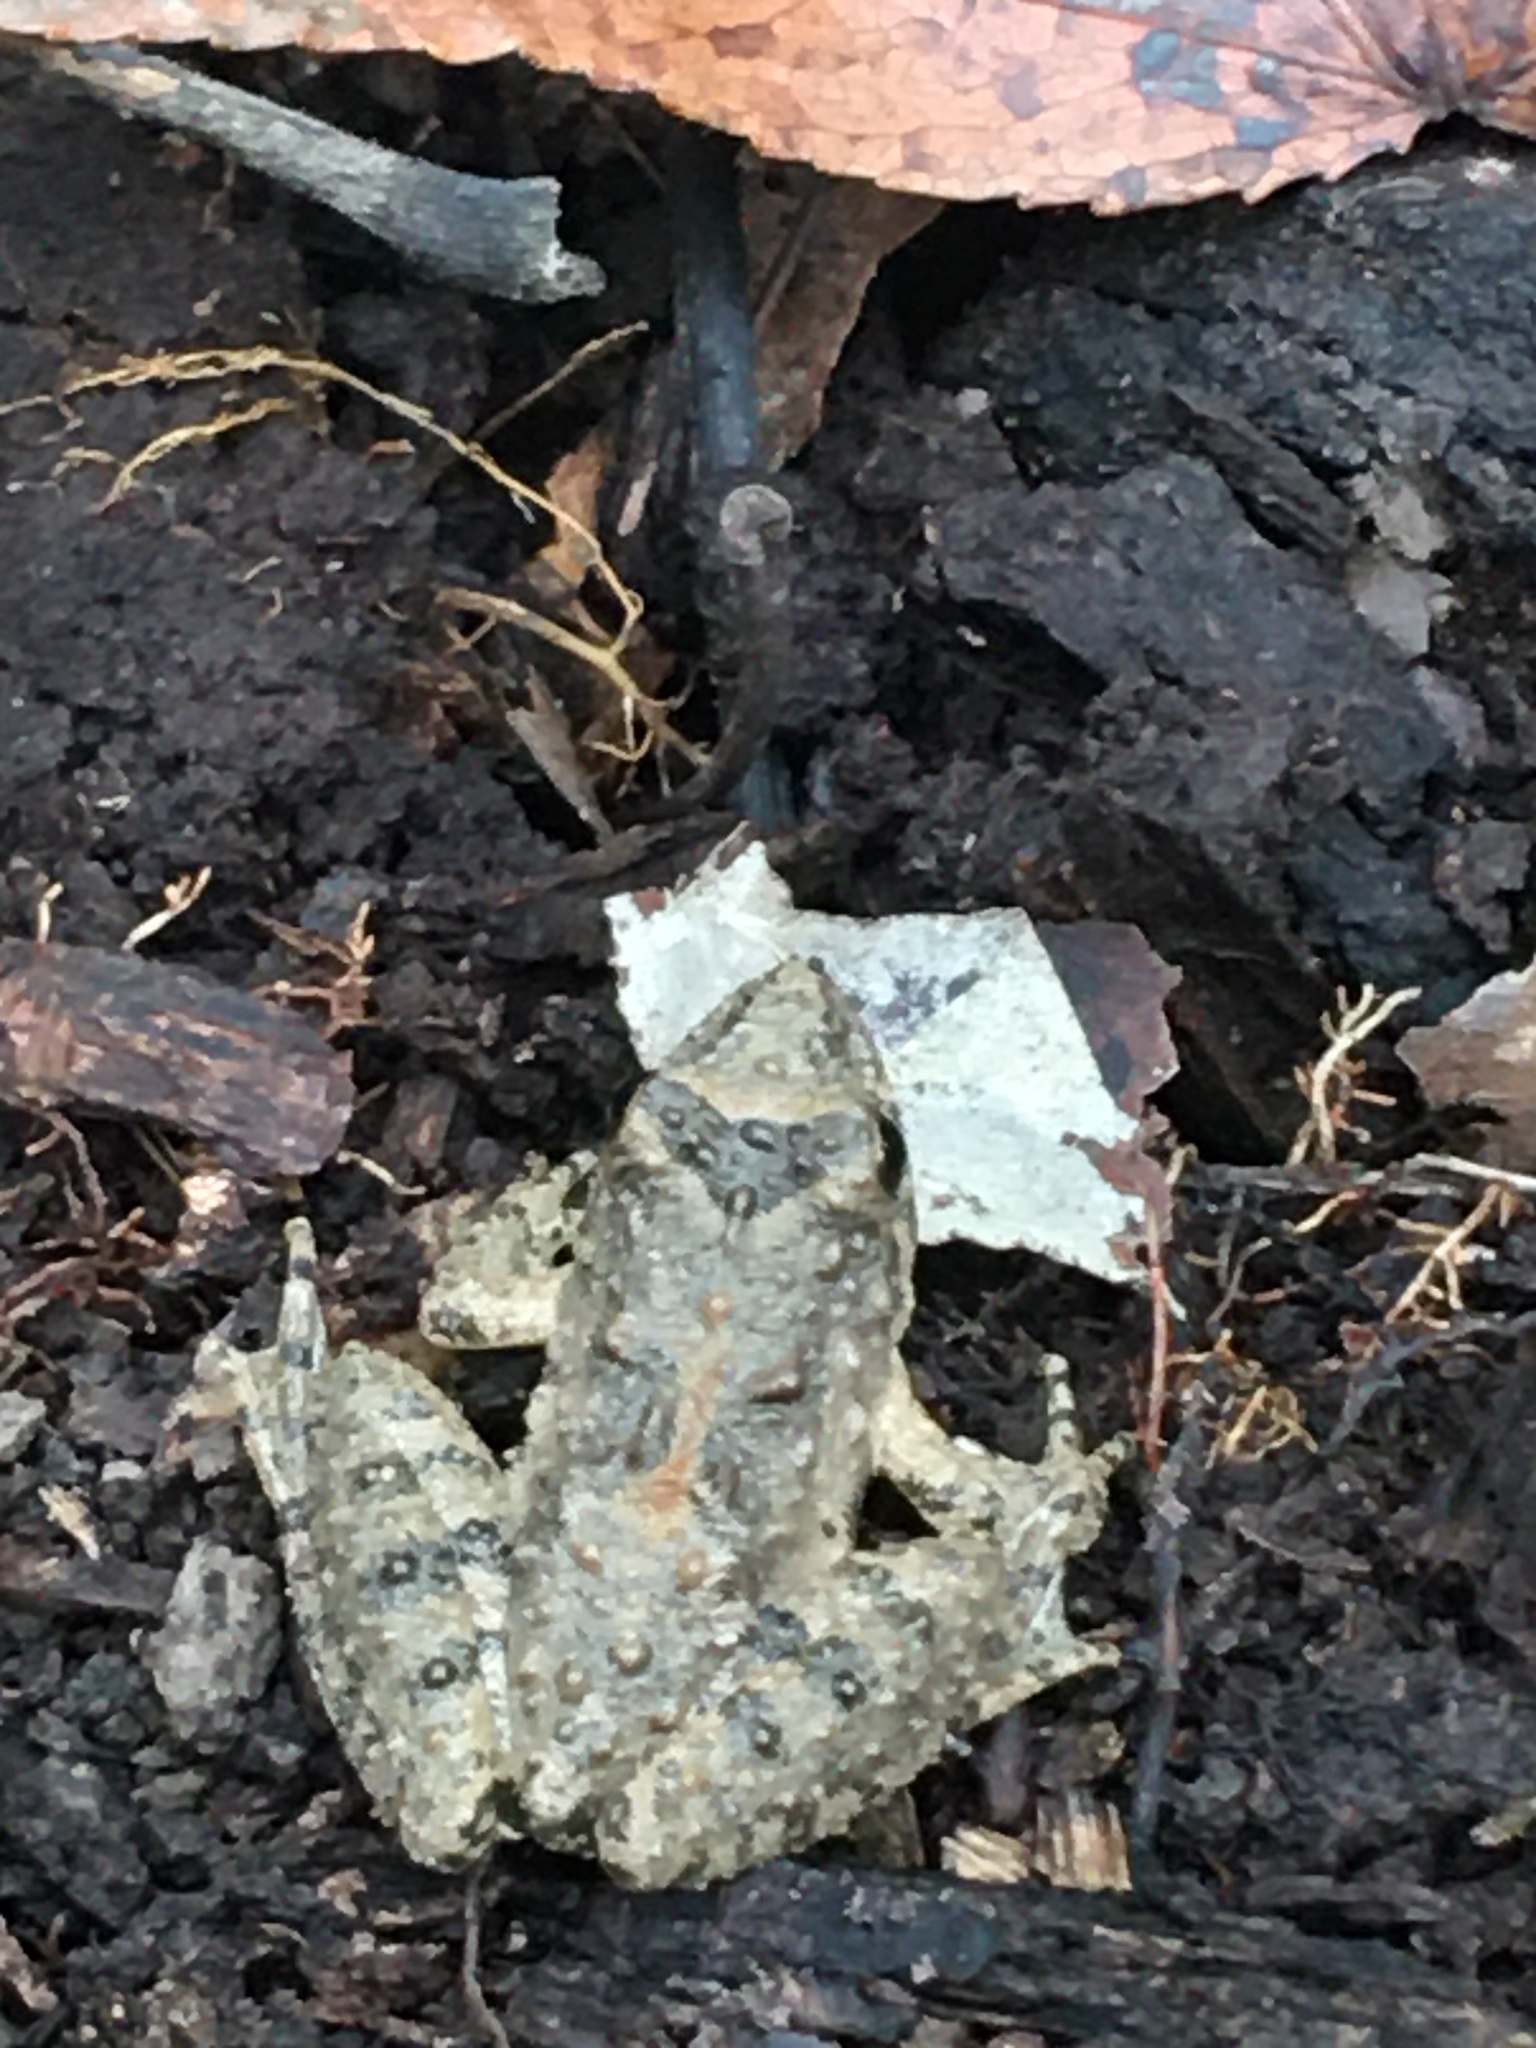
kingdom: Animalia
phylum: Chordata
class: Amphibia
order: Anura
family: Hylidae
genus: Acris
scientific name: Acris blanchardi
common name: Blanchard's cricket frog
